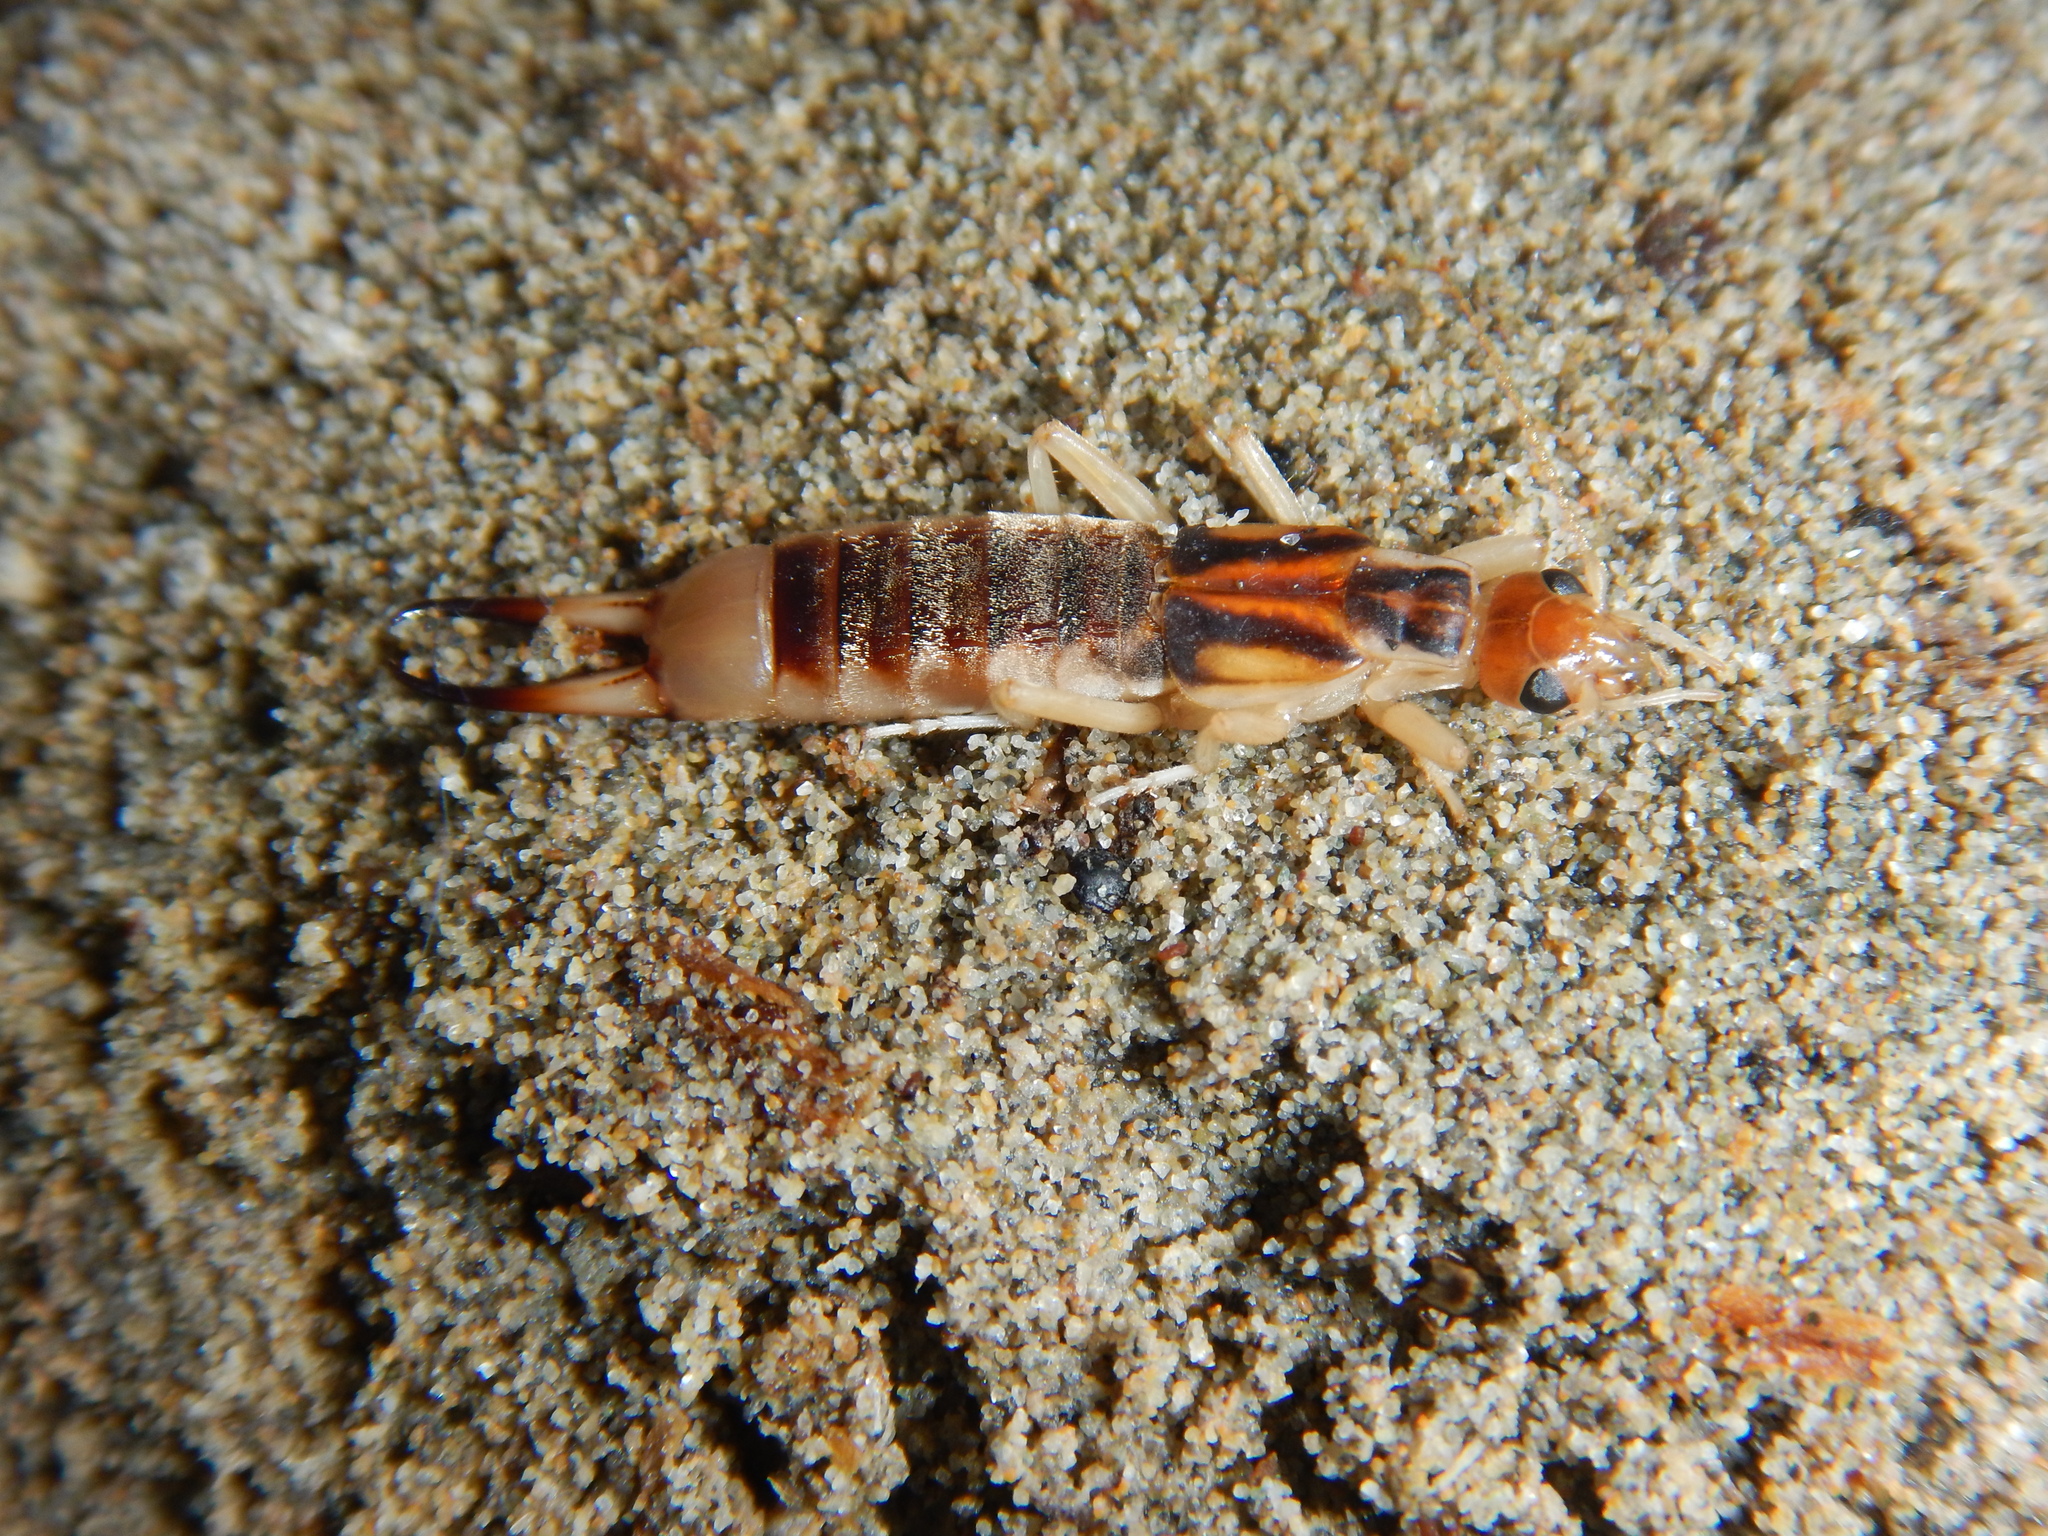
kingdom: Animalia
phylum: Arthropoda
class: Insecta
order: Dermaptera
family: Labiduridae
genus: Labidura
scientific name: Labidura riparia
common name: Striped earwig
